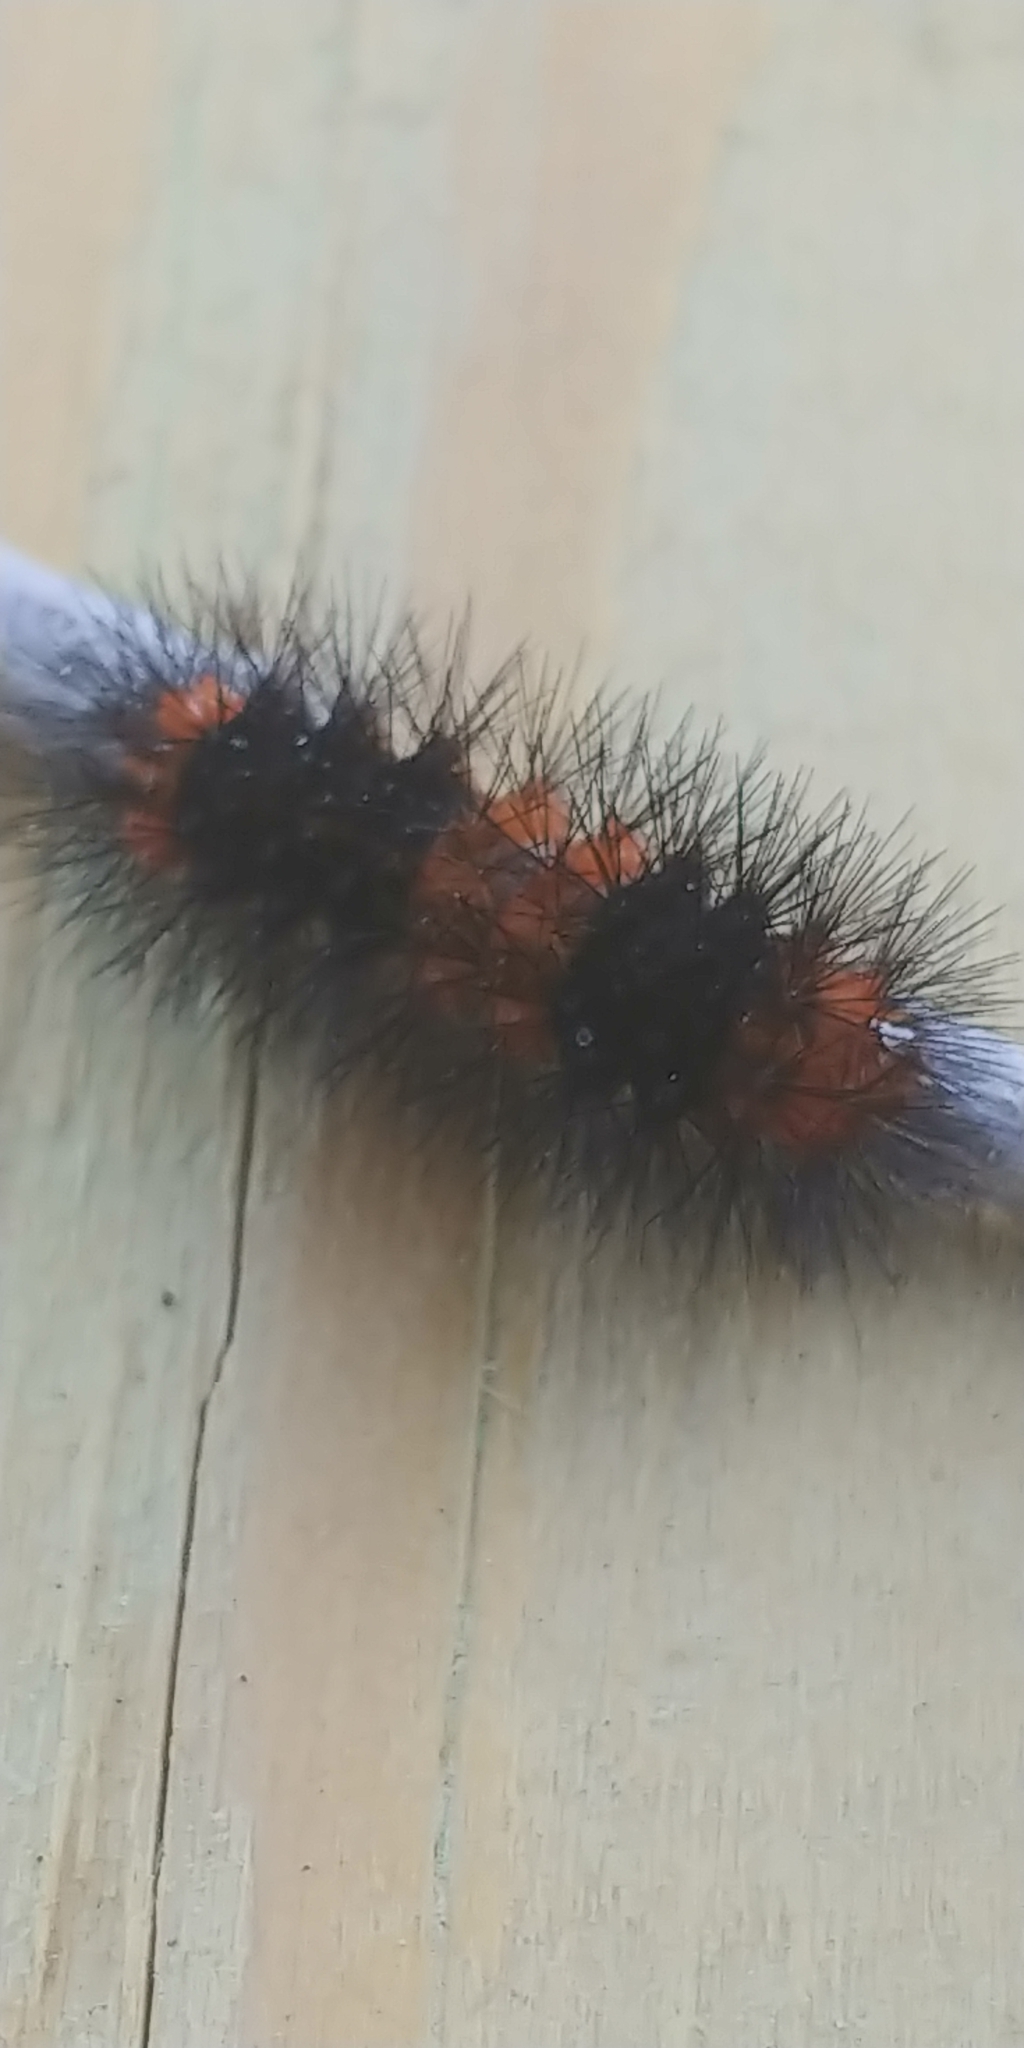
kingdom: Animalia
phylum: Arthropoda
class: Insecta
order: Lepidoptera
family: Erebidae
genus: Hypercompe
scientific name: Hypercompe scribonia
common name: Giant leopard moth
